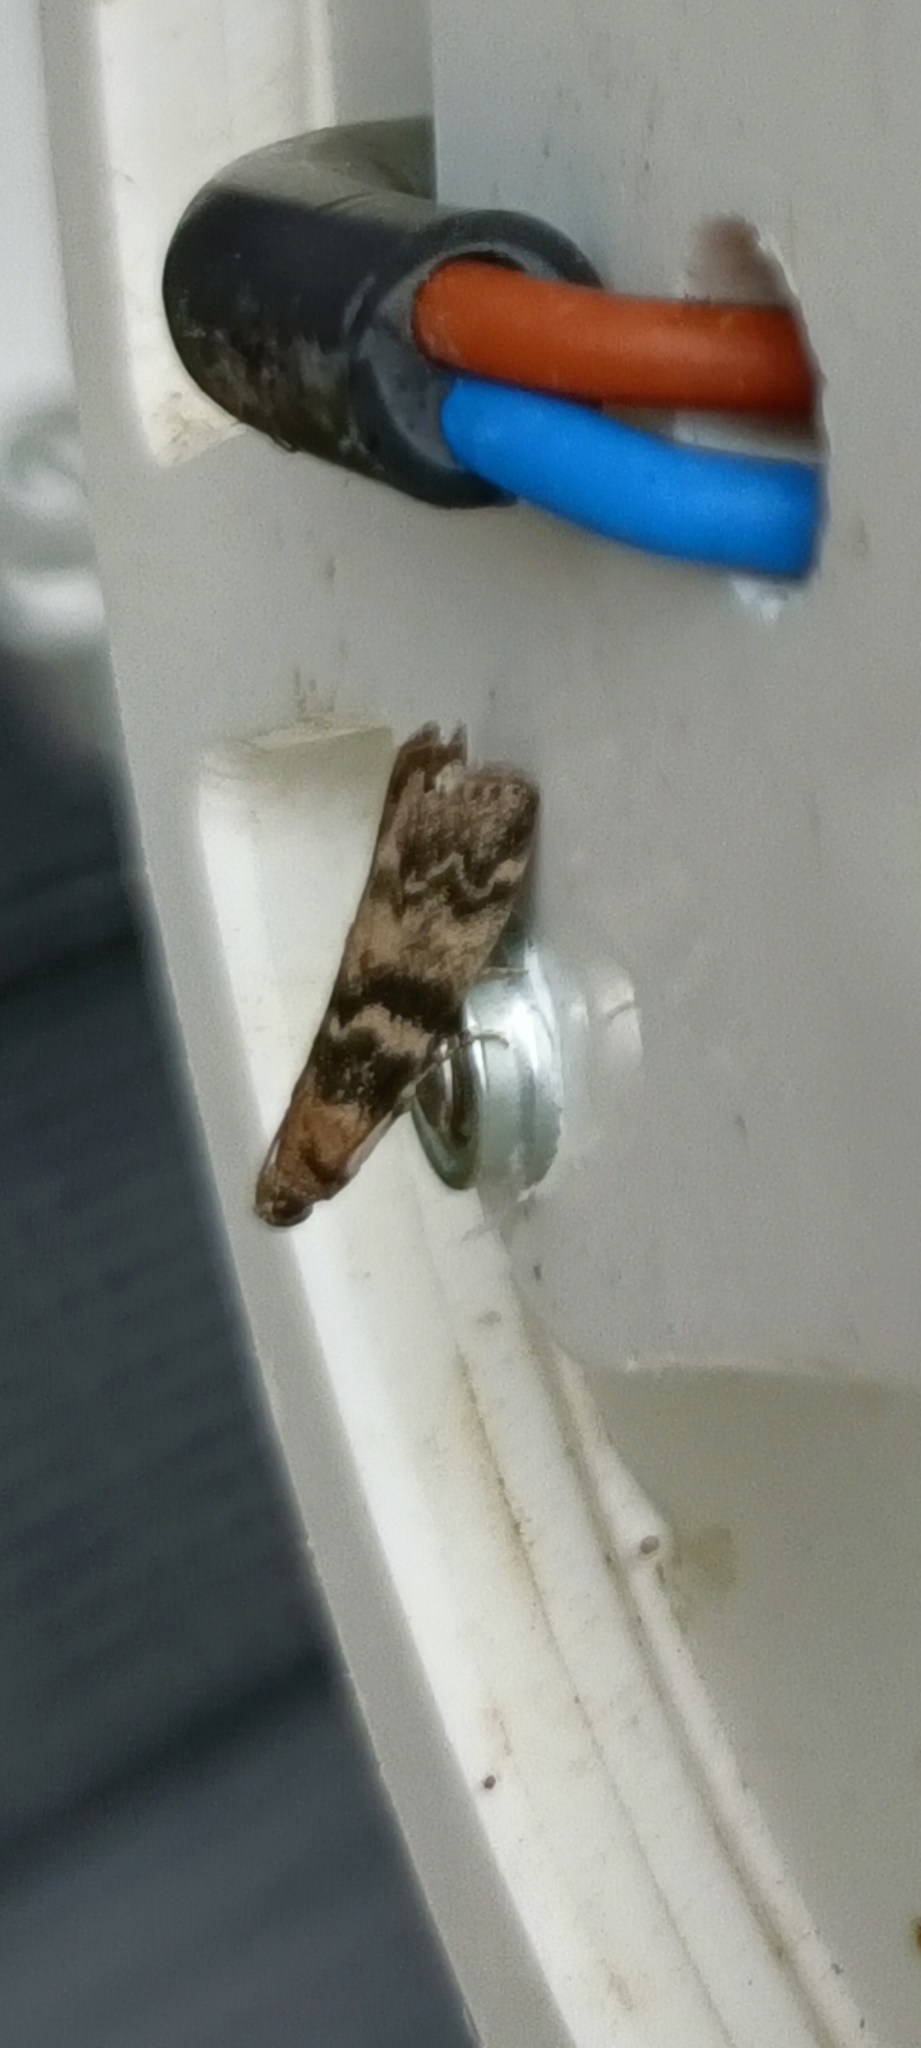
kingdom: Animalia
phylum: Arthropoda
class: Insecta
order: Lepidoptera
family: Pyralidae
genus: Euzophera
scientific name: Euzophera pinguis
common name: Ash-bark knot-horn
